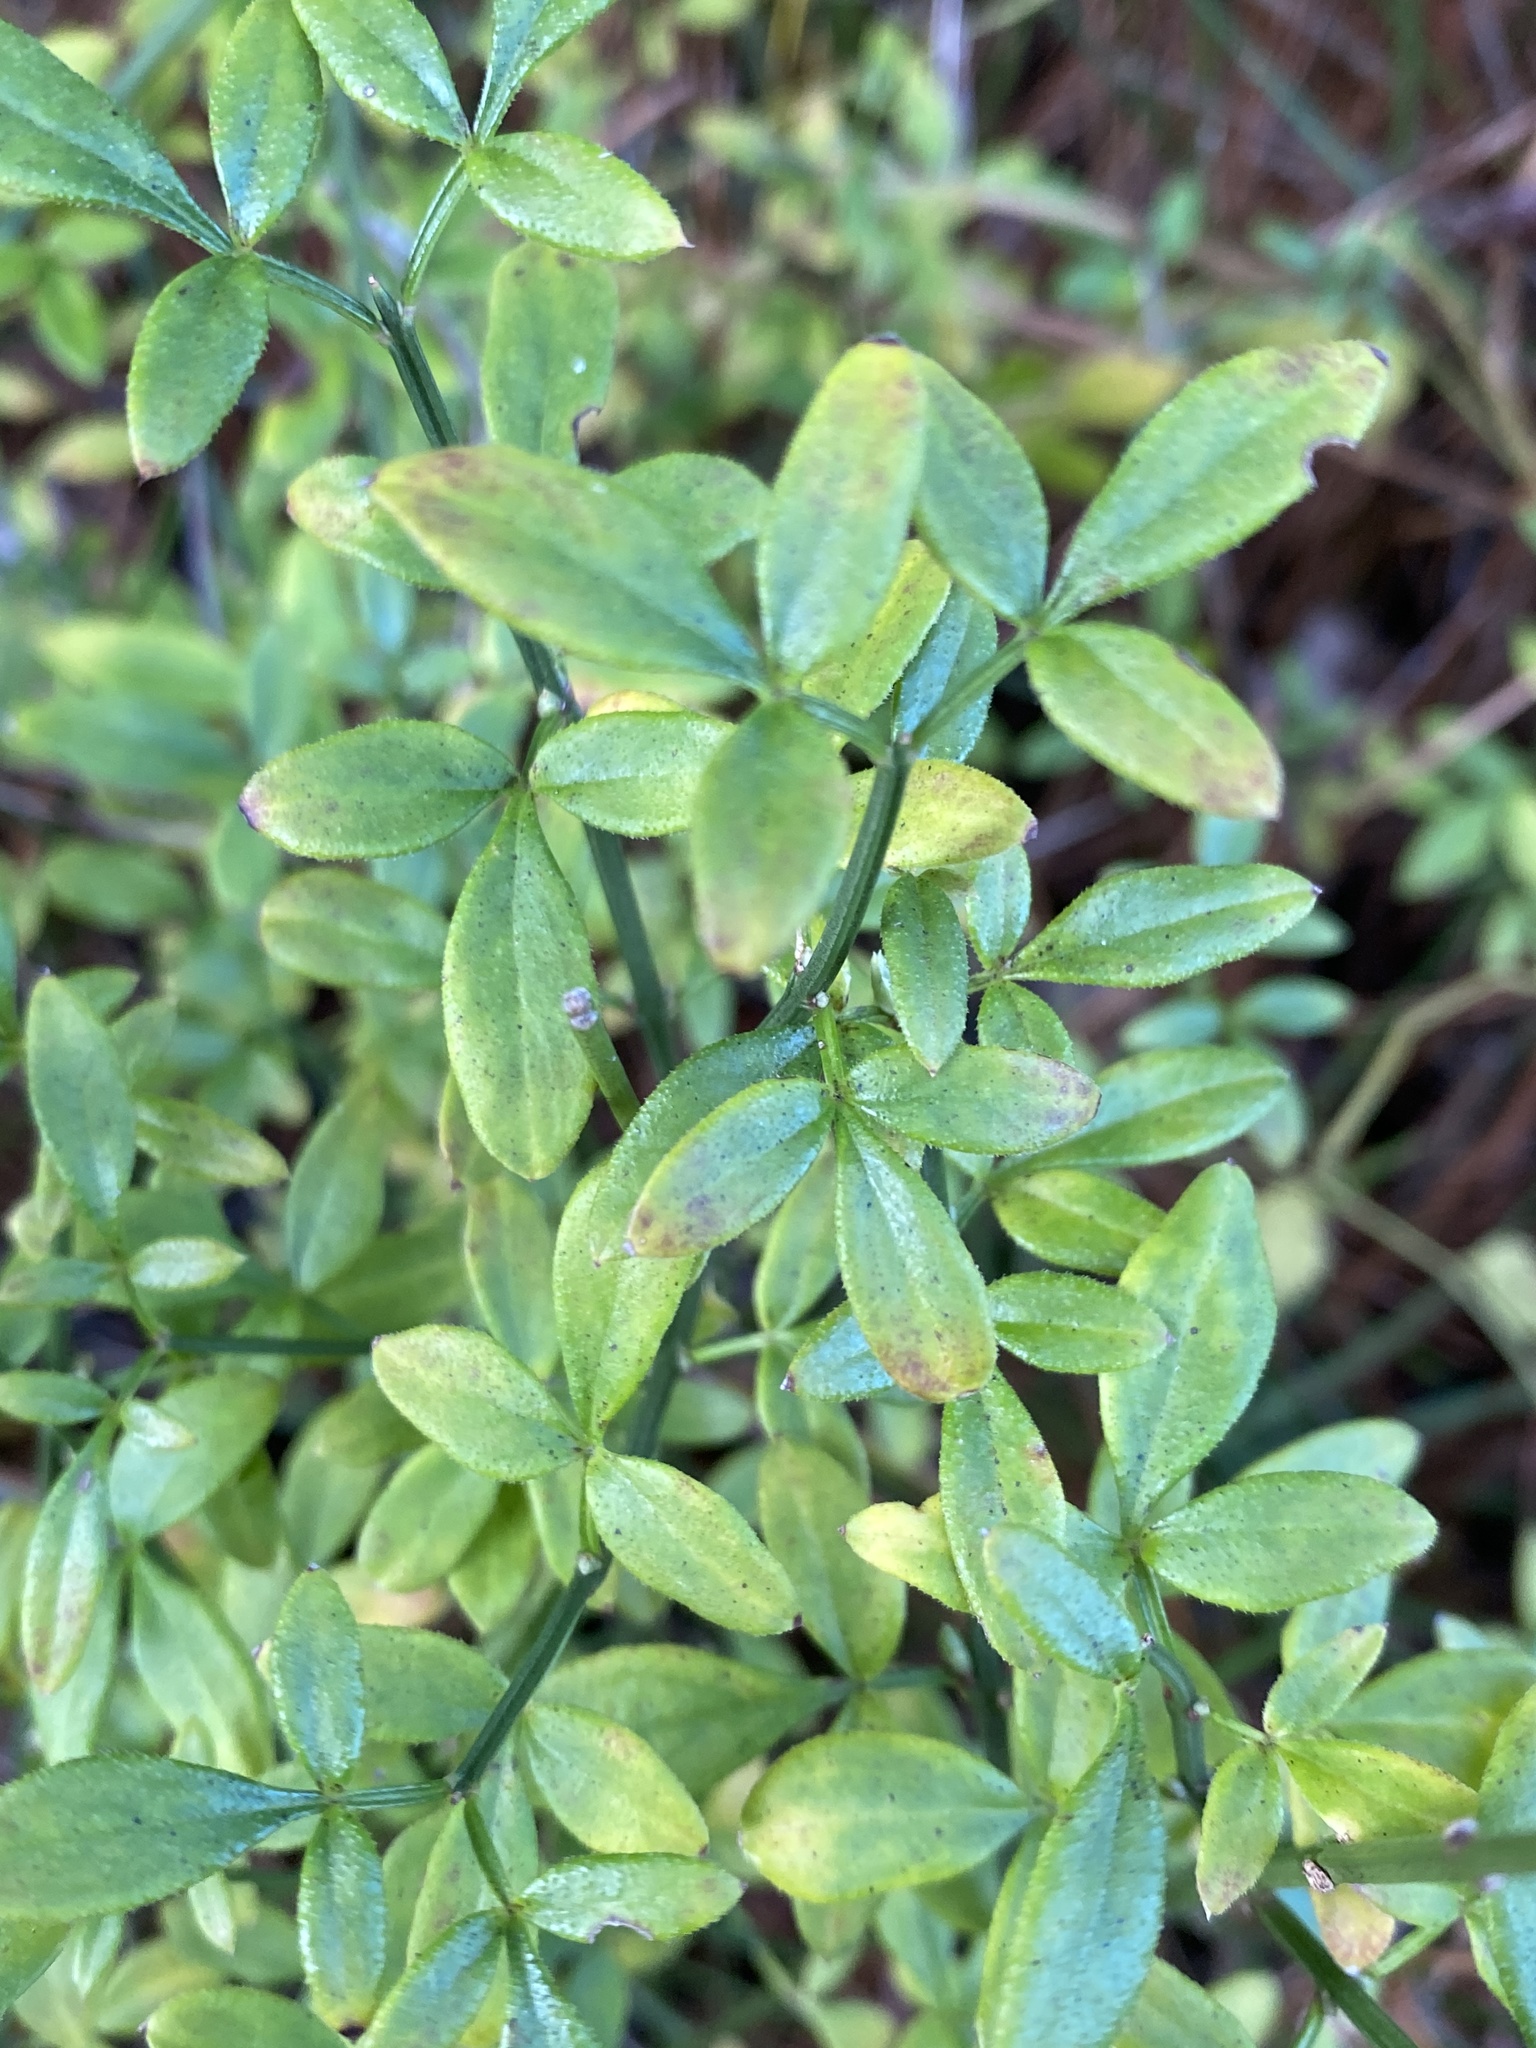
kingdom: Plantae
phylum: Tracheophyta
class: Magnoliopsida
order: Lamiales
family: Oleaceae
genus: Jasminum
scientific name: Jasminum nudiflorum
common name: Winter jasmine
